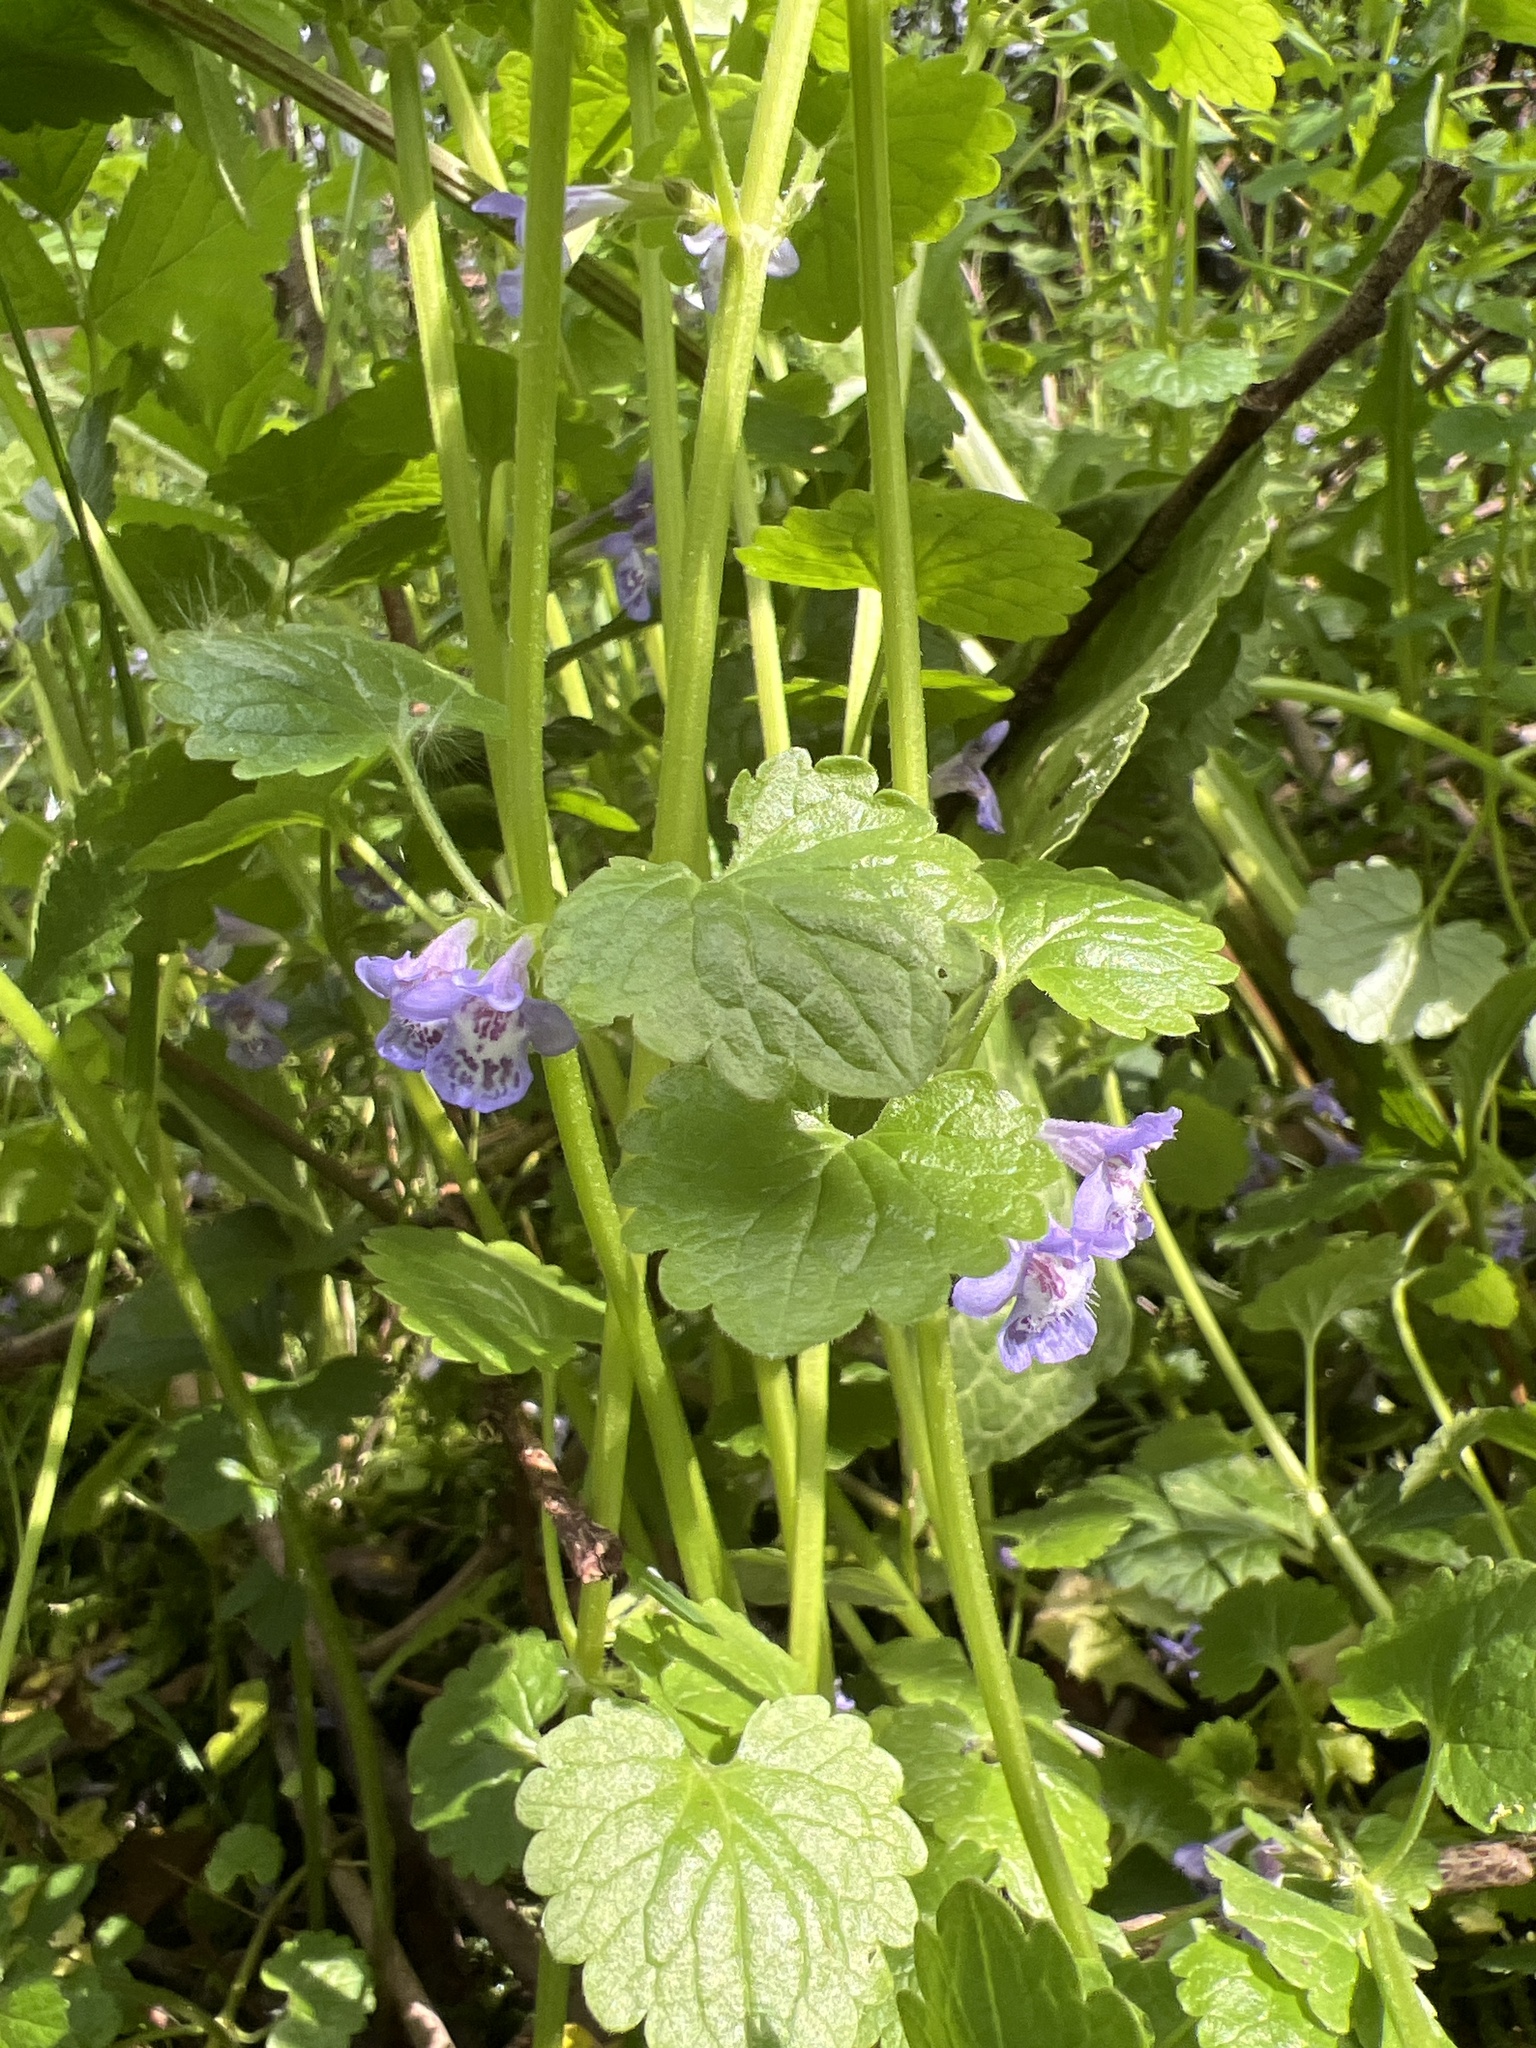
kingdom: Plantae
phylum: Tracheophyta
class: Magnoliopsida
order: Lamiales
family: Lamiaceae
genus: Glechoma
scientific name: Glechoma hederacea
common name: Ground ivy
